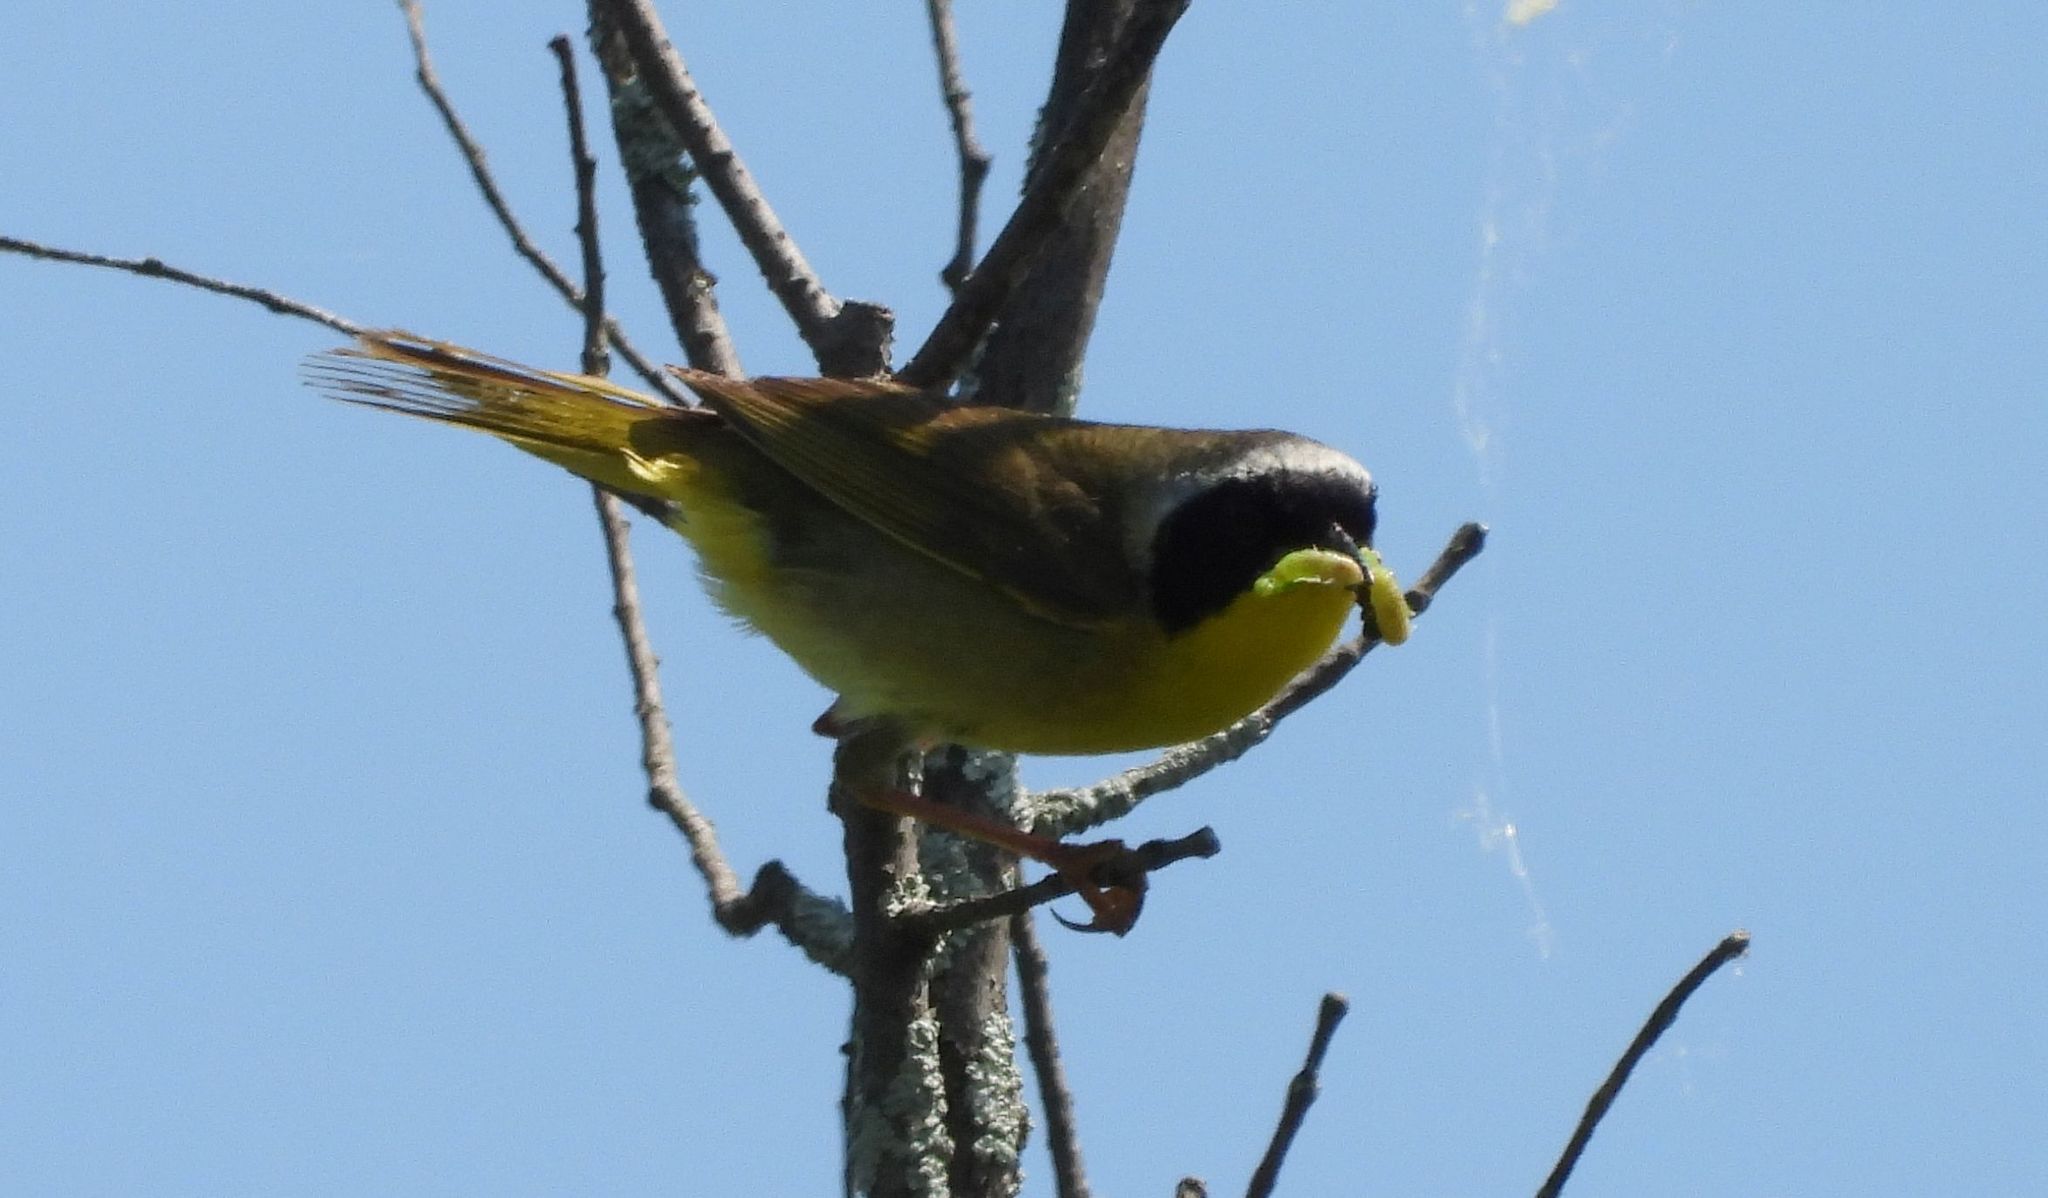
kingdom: Animalia
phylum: Chordata
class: Aves
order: Passeriformes
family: Parulidae
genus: Geothlypis
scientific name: Geothlypis trichas
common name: Common yellowthroat
